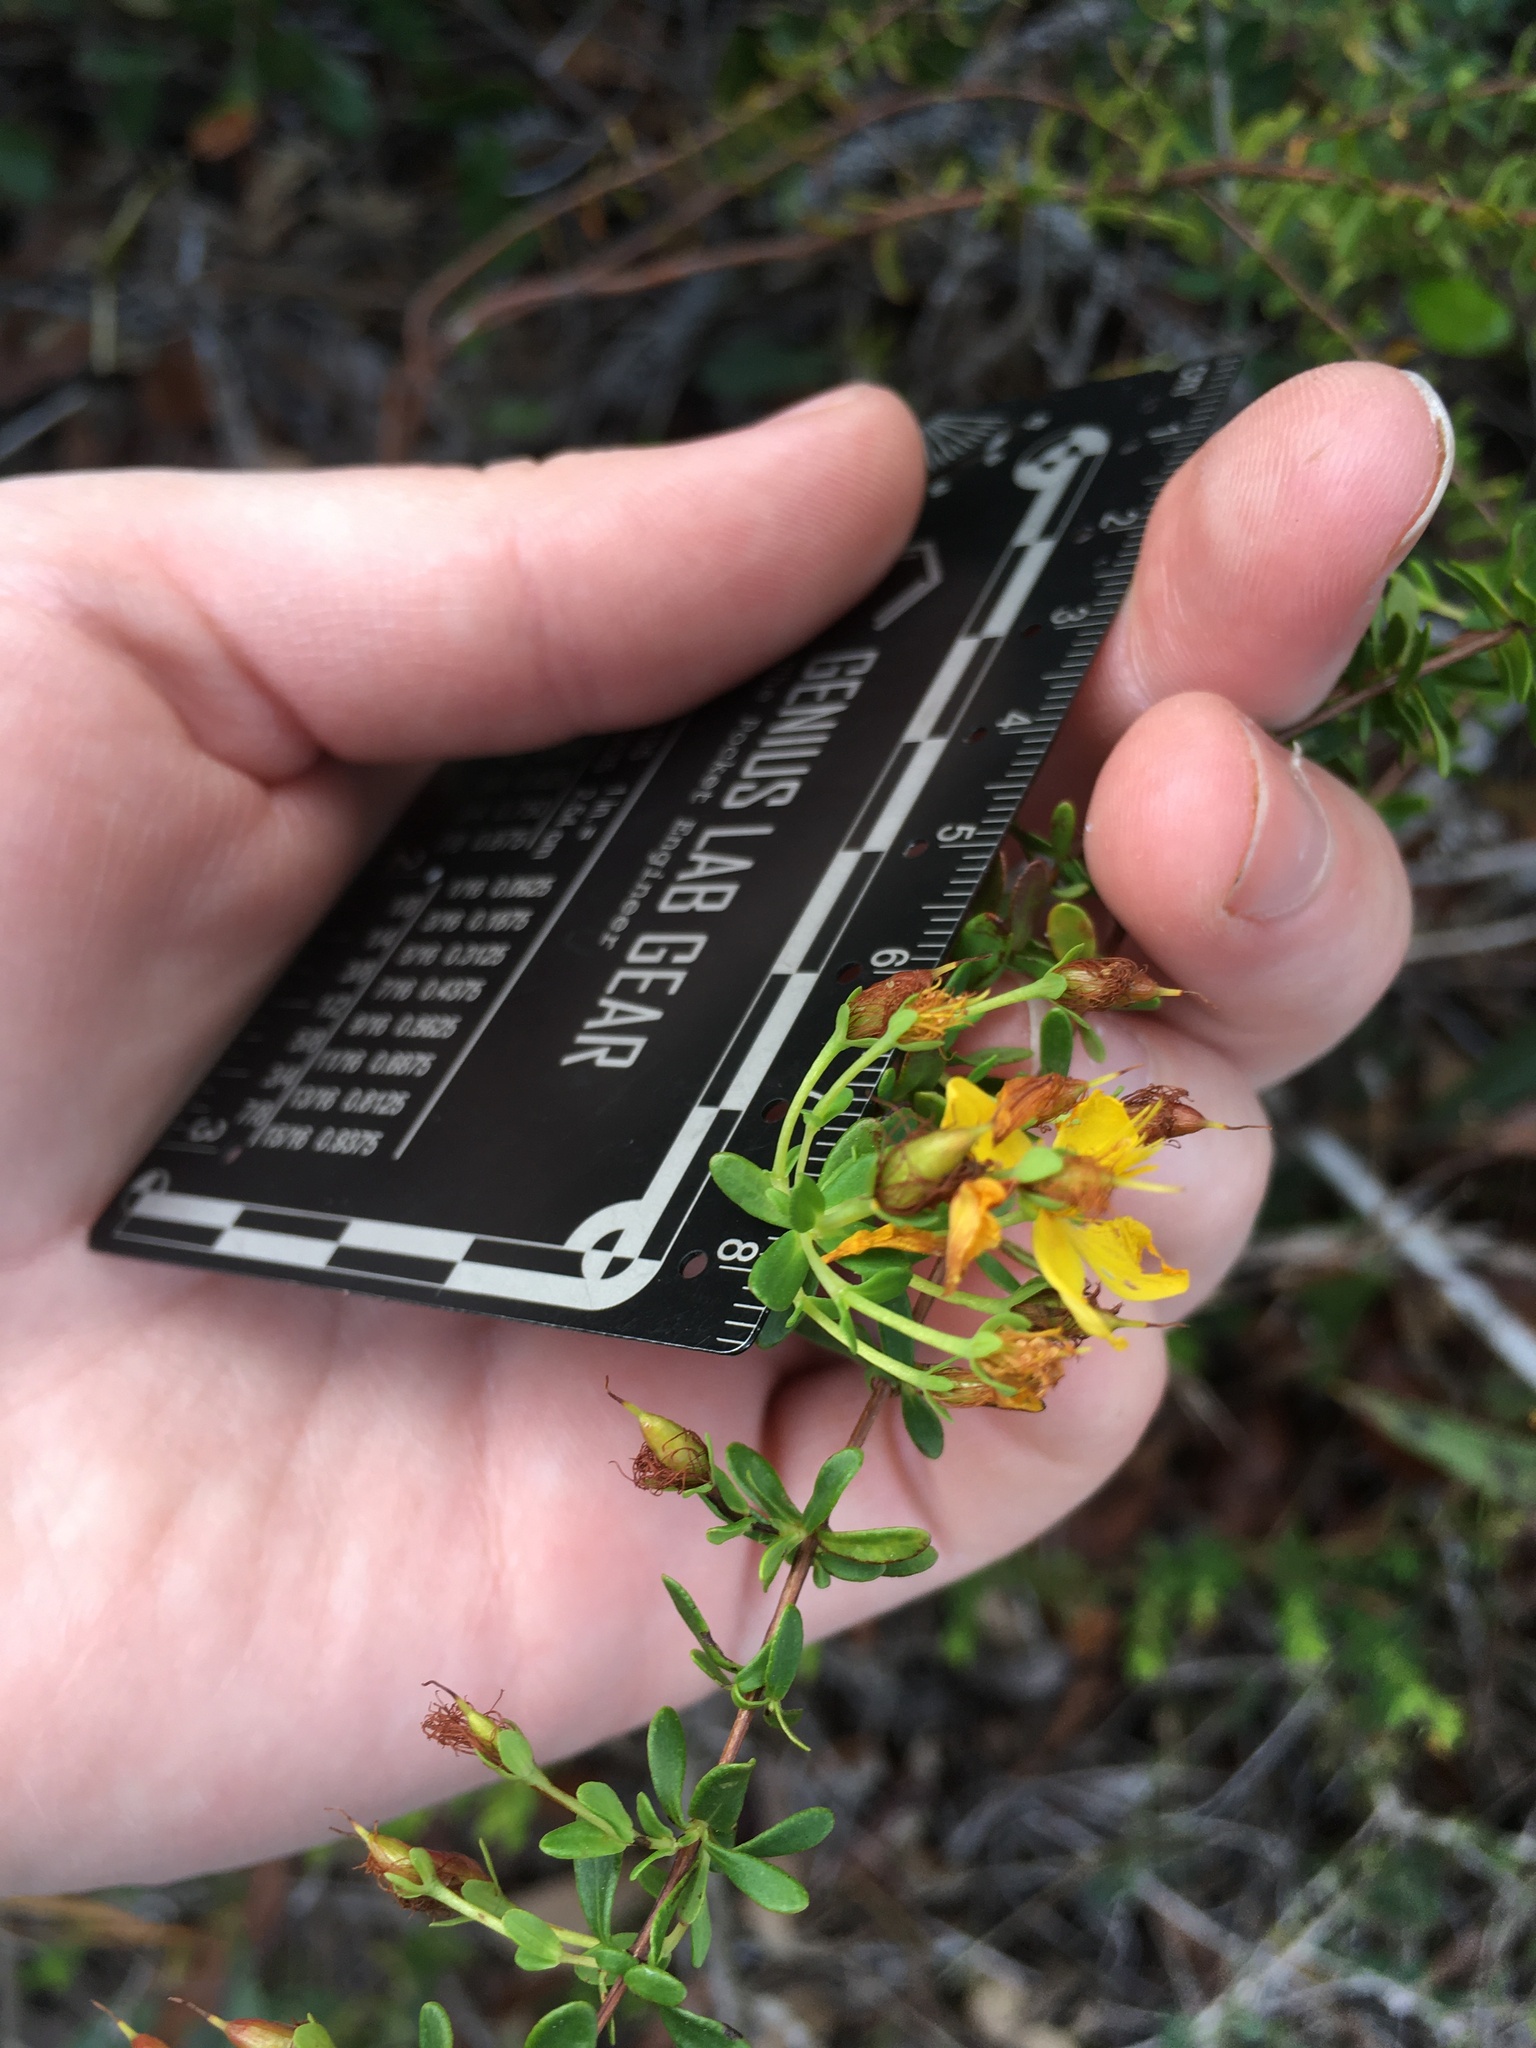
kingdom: Plantae
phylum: Tracheophyta
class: Magnoliopsida
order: Malpighiales
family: Hypericaceae
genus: Hypericum
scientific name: Hypericum microsepalum
